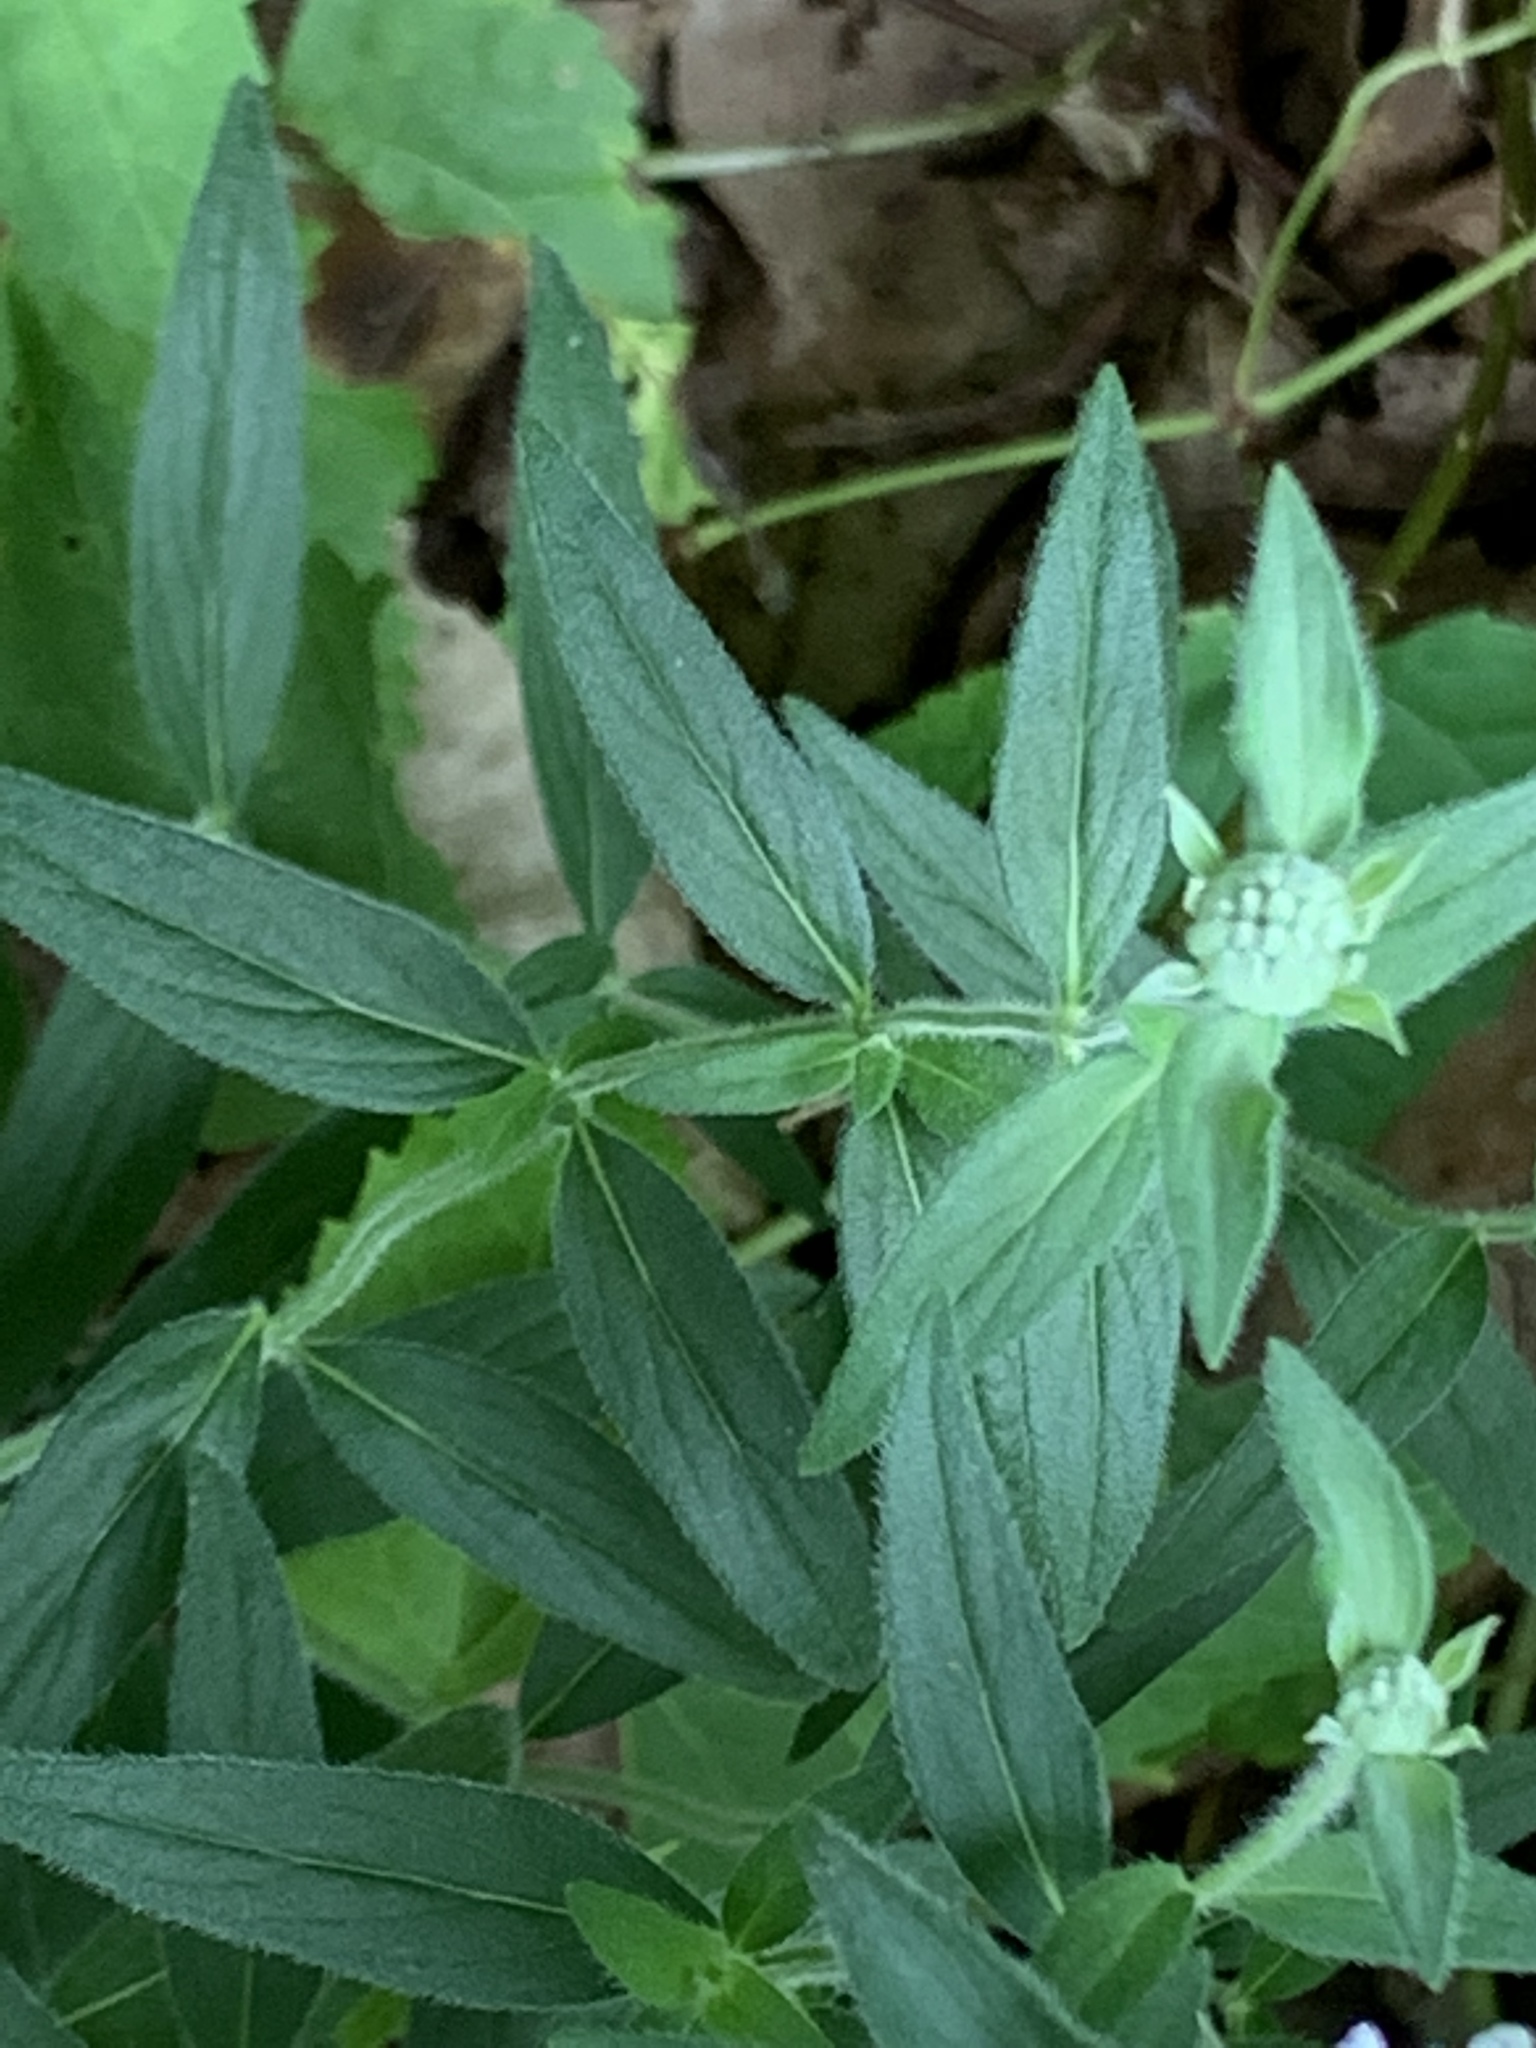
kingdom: Plantae
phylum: Tracheophyta
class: Magnoliopsida
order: Lamiales
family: Lamiaceae
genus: Pycnanthemum
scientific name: Pycnanthemum verticillatum
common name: Whorled mountain-mint
